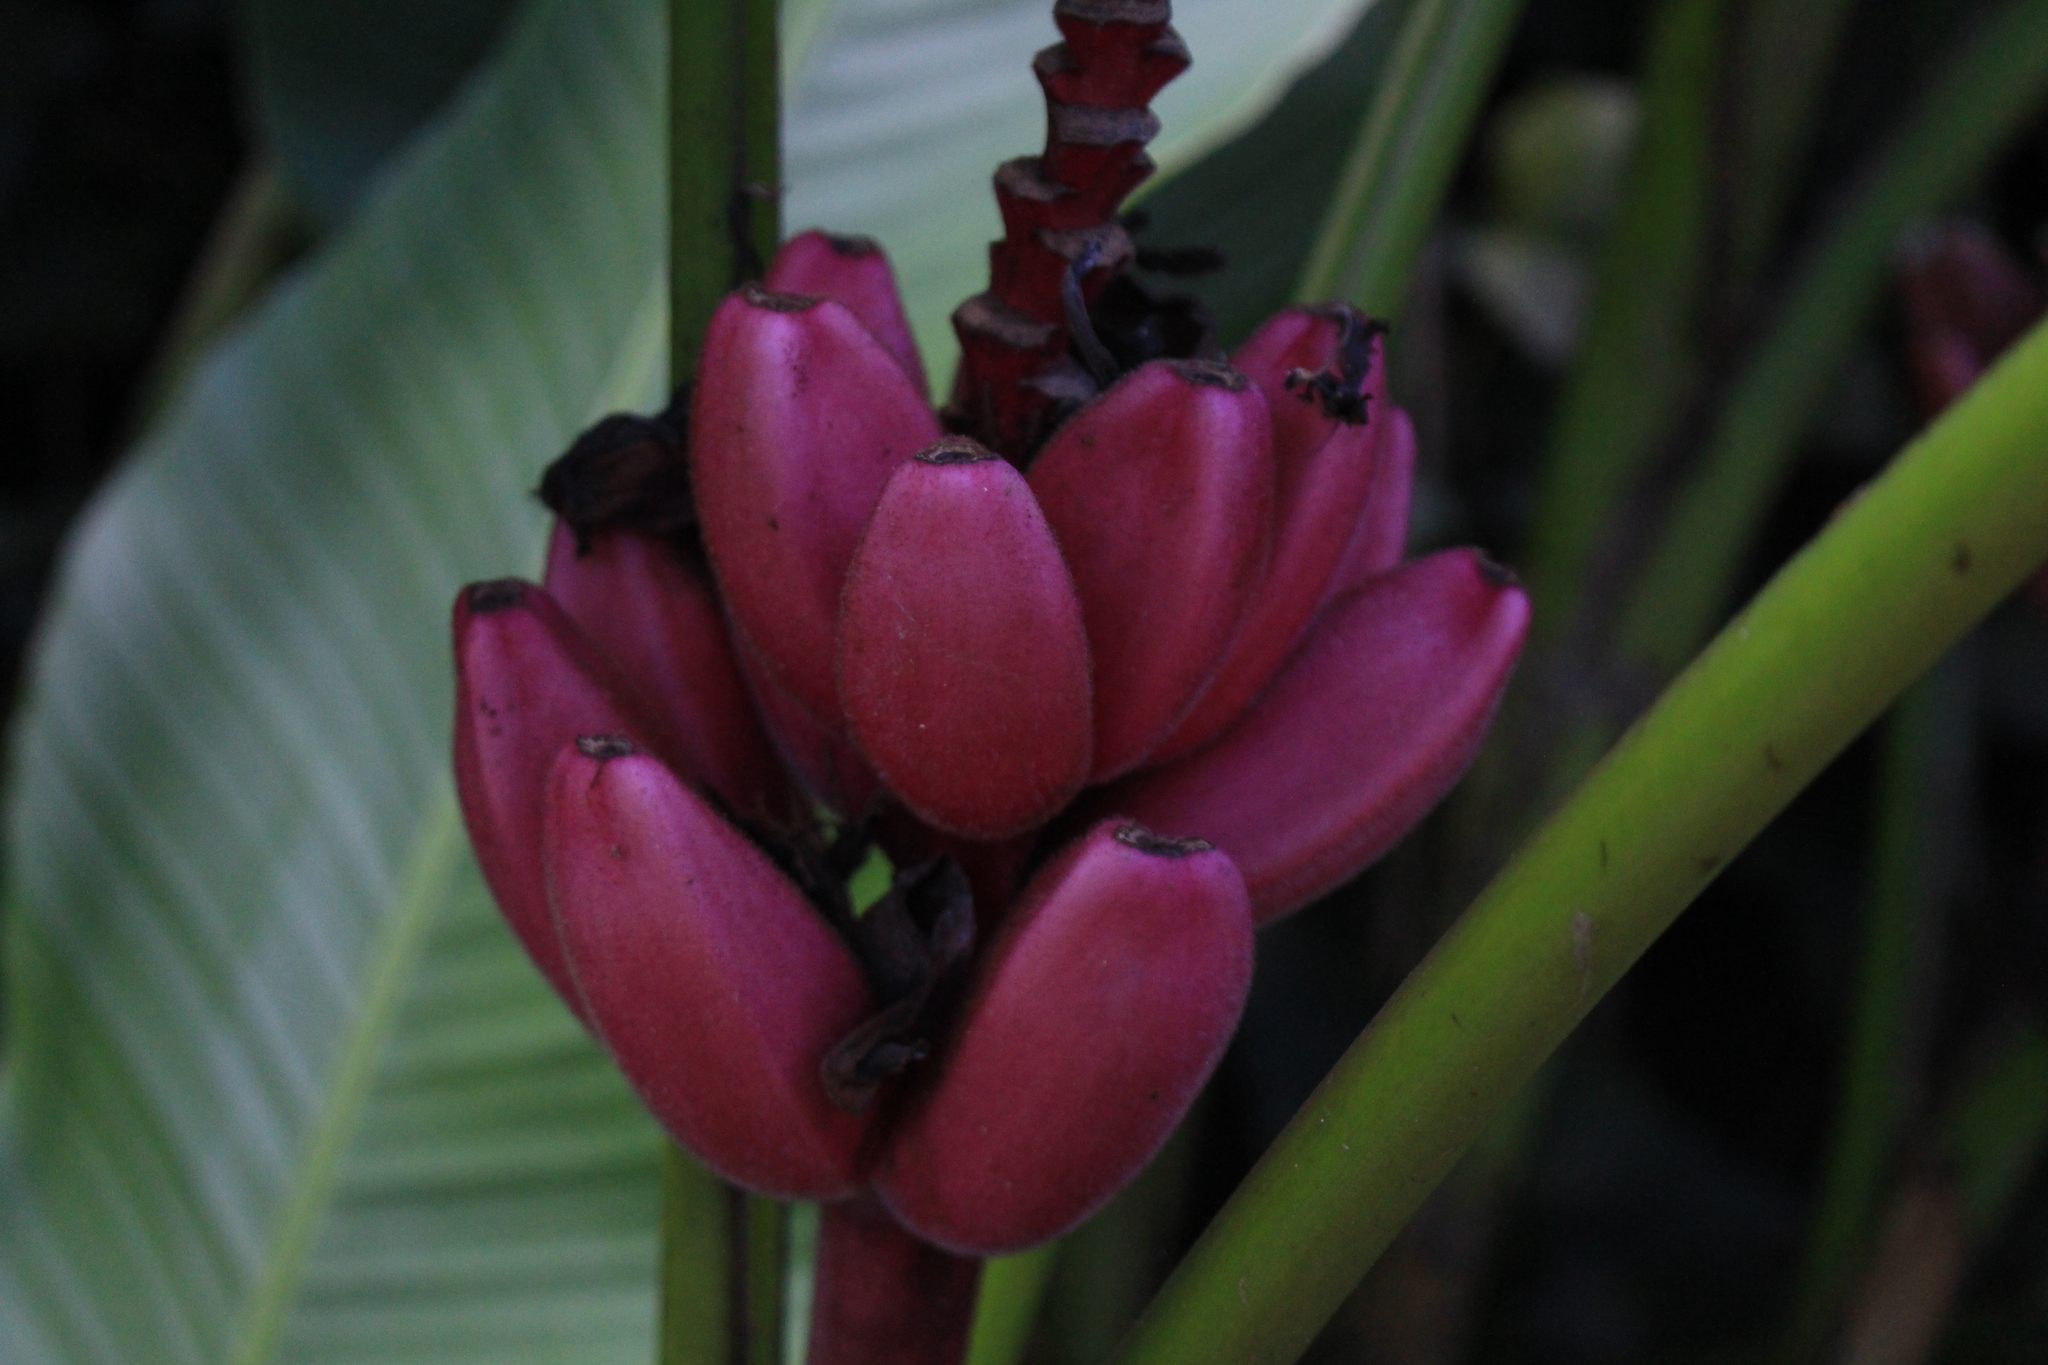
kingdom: Plantae
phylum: Tracheophyta
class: Liliopsida
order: Zingiberales
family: Musaceae
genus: Musa
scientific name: Musa velutina
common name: Pink velvet banana
